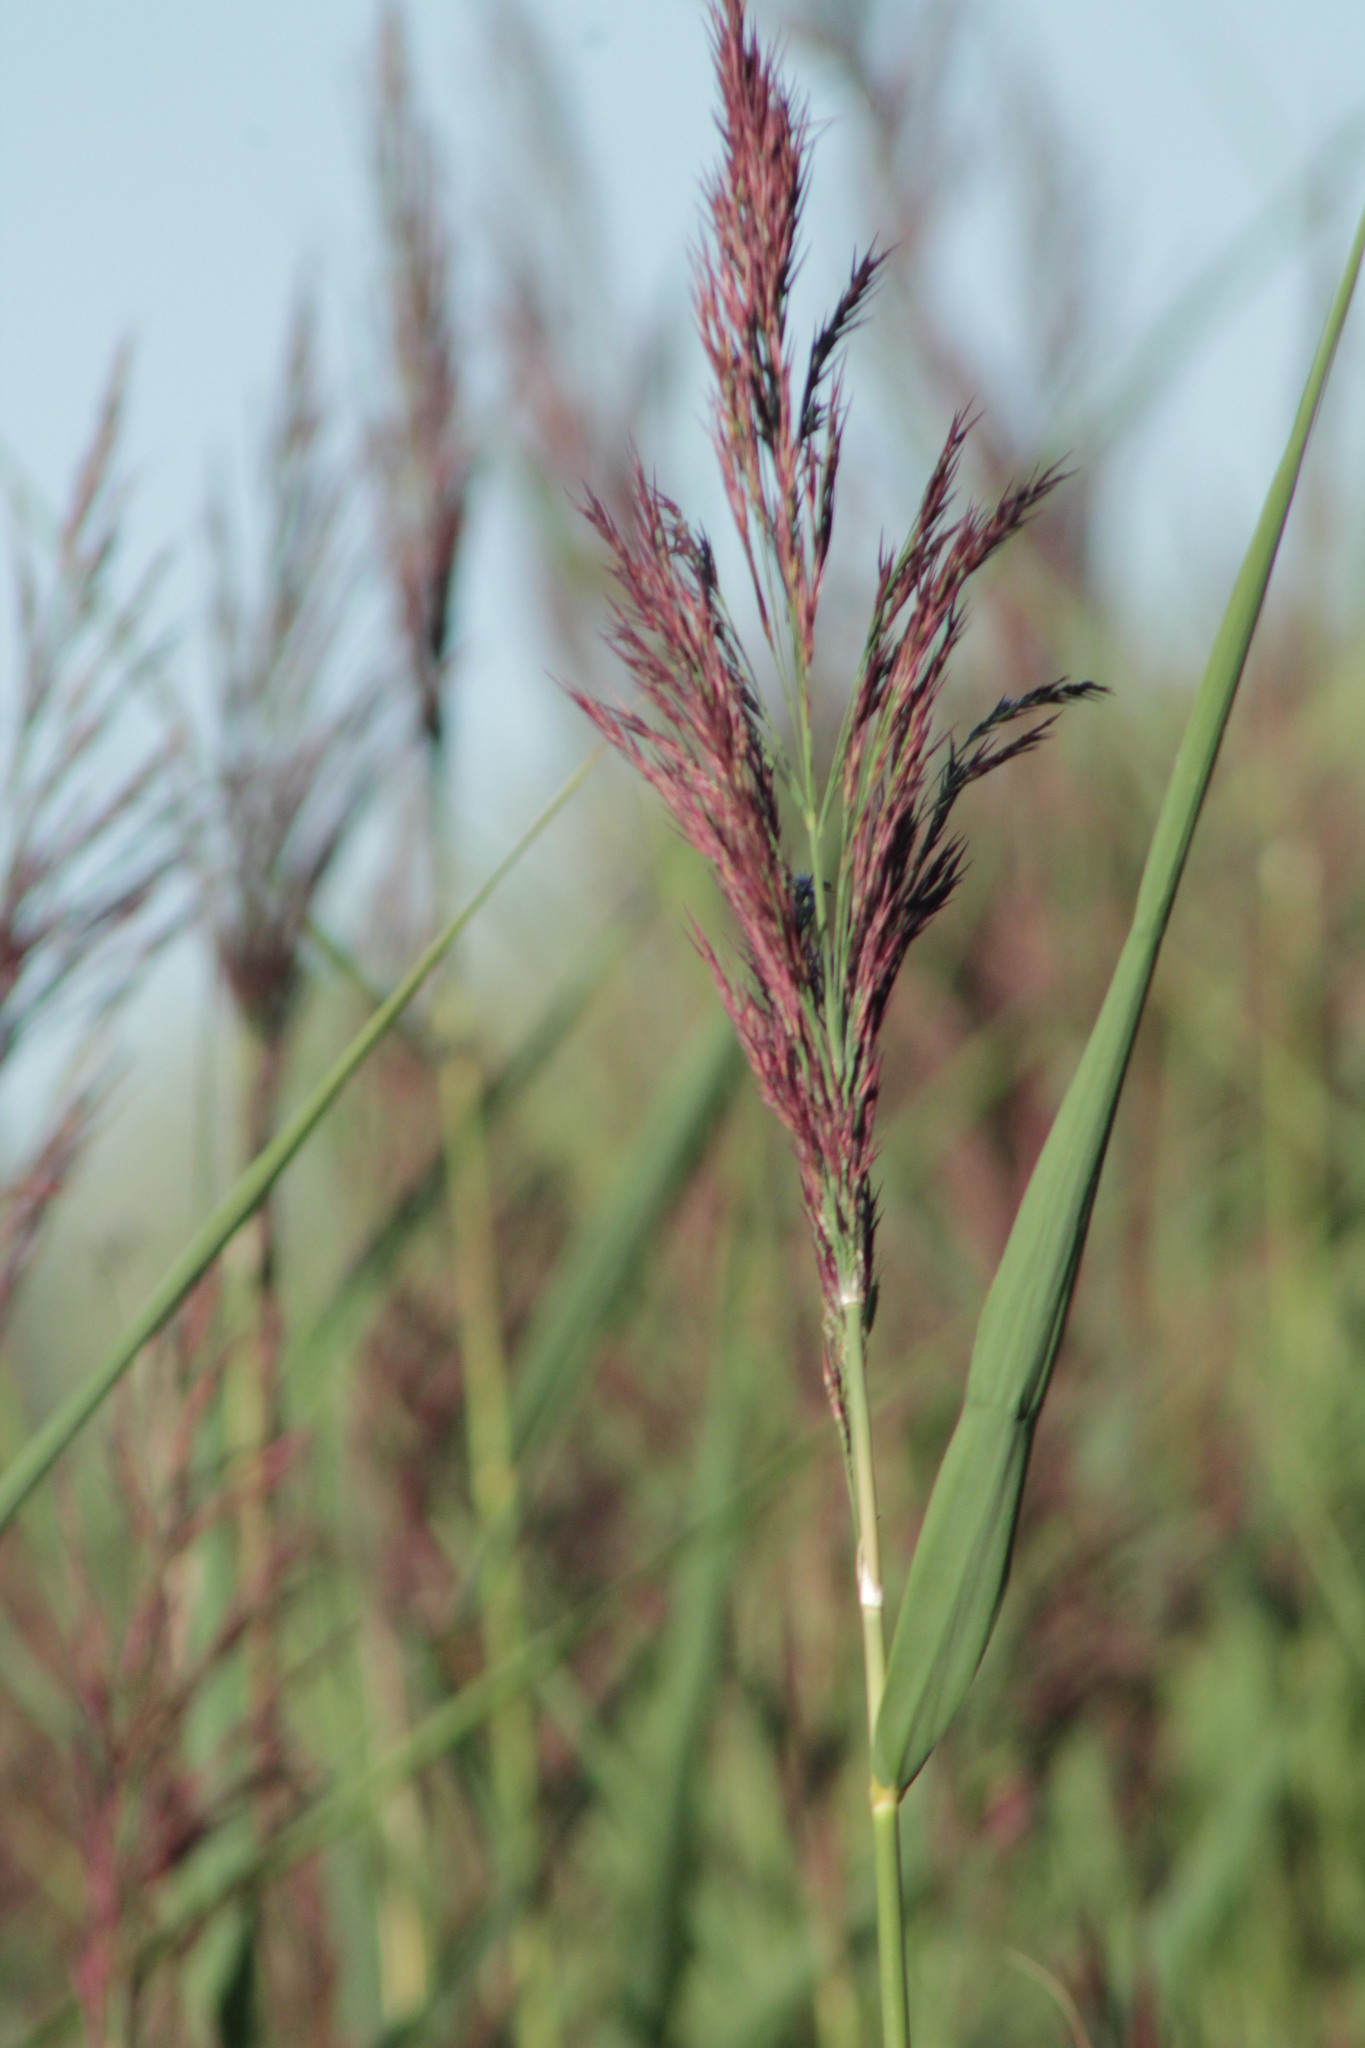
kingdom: Plantae
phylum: Tracheophyta
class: Liliopsida
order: Poales
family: Poaceae
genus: Phragmites
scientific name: Phragmites australis
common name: Common reed
